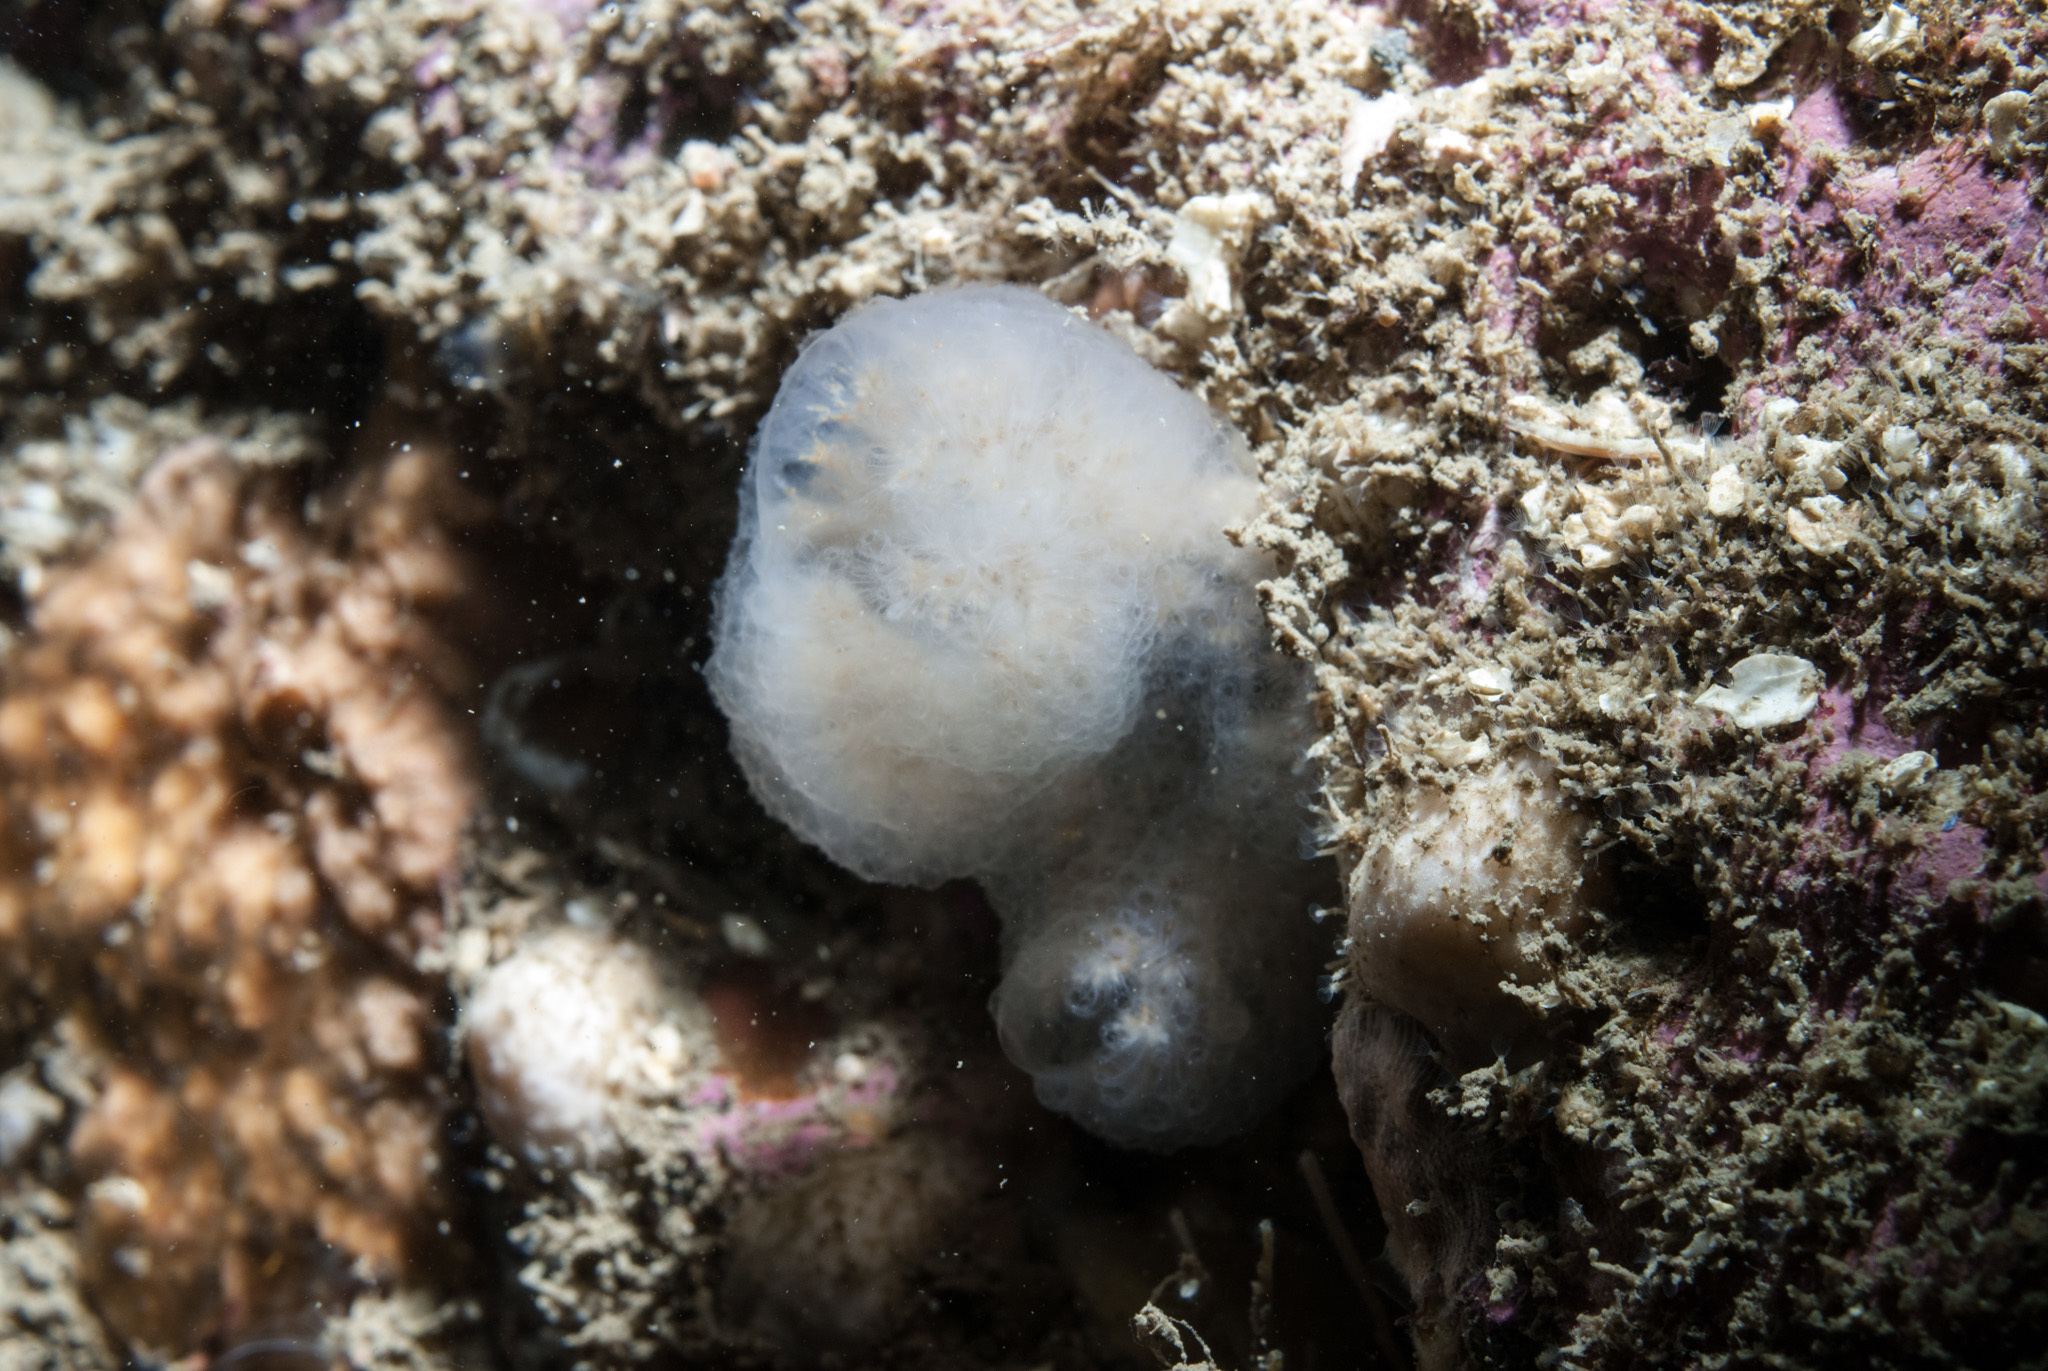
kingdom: Animalia
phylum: Chordata
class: Ascidiacea
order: Aplousobranchia
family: Polyclinidae
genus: Aplidium
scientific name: Aplidium pallidum
